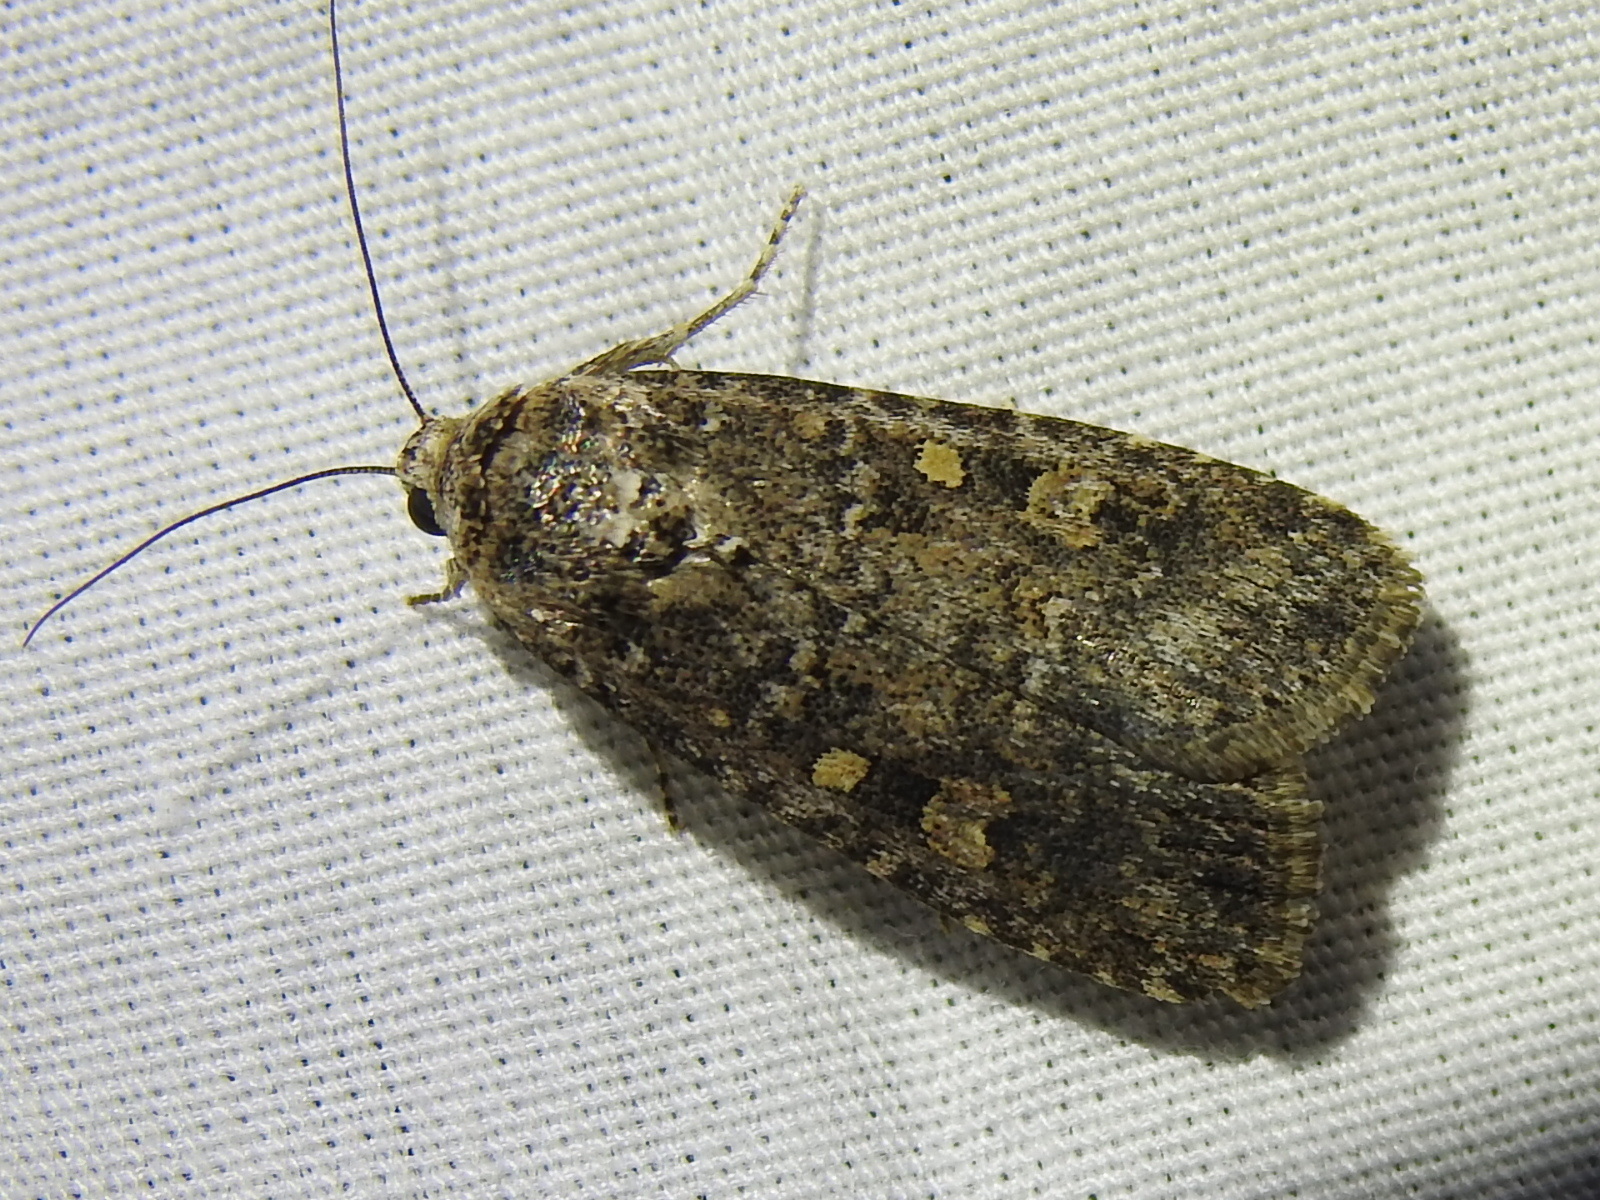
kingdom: Animalia
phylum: Arthropoda
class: Insecta
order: Lepidoptera
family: Noctuidae
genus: Spodoptera
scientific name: Spodoptera exigua
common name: Beet armyworm
